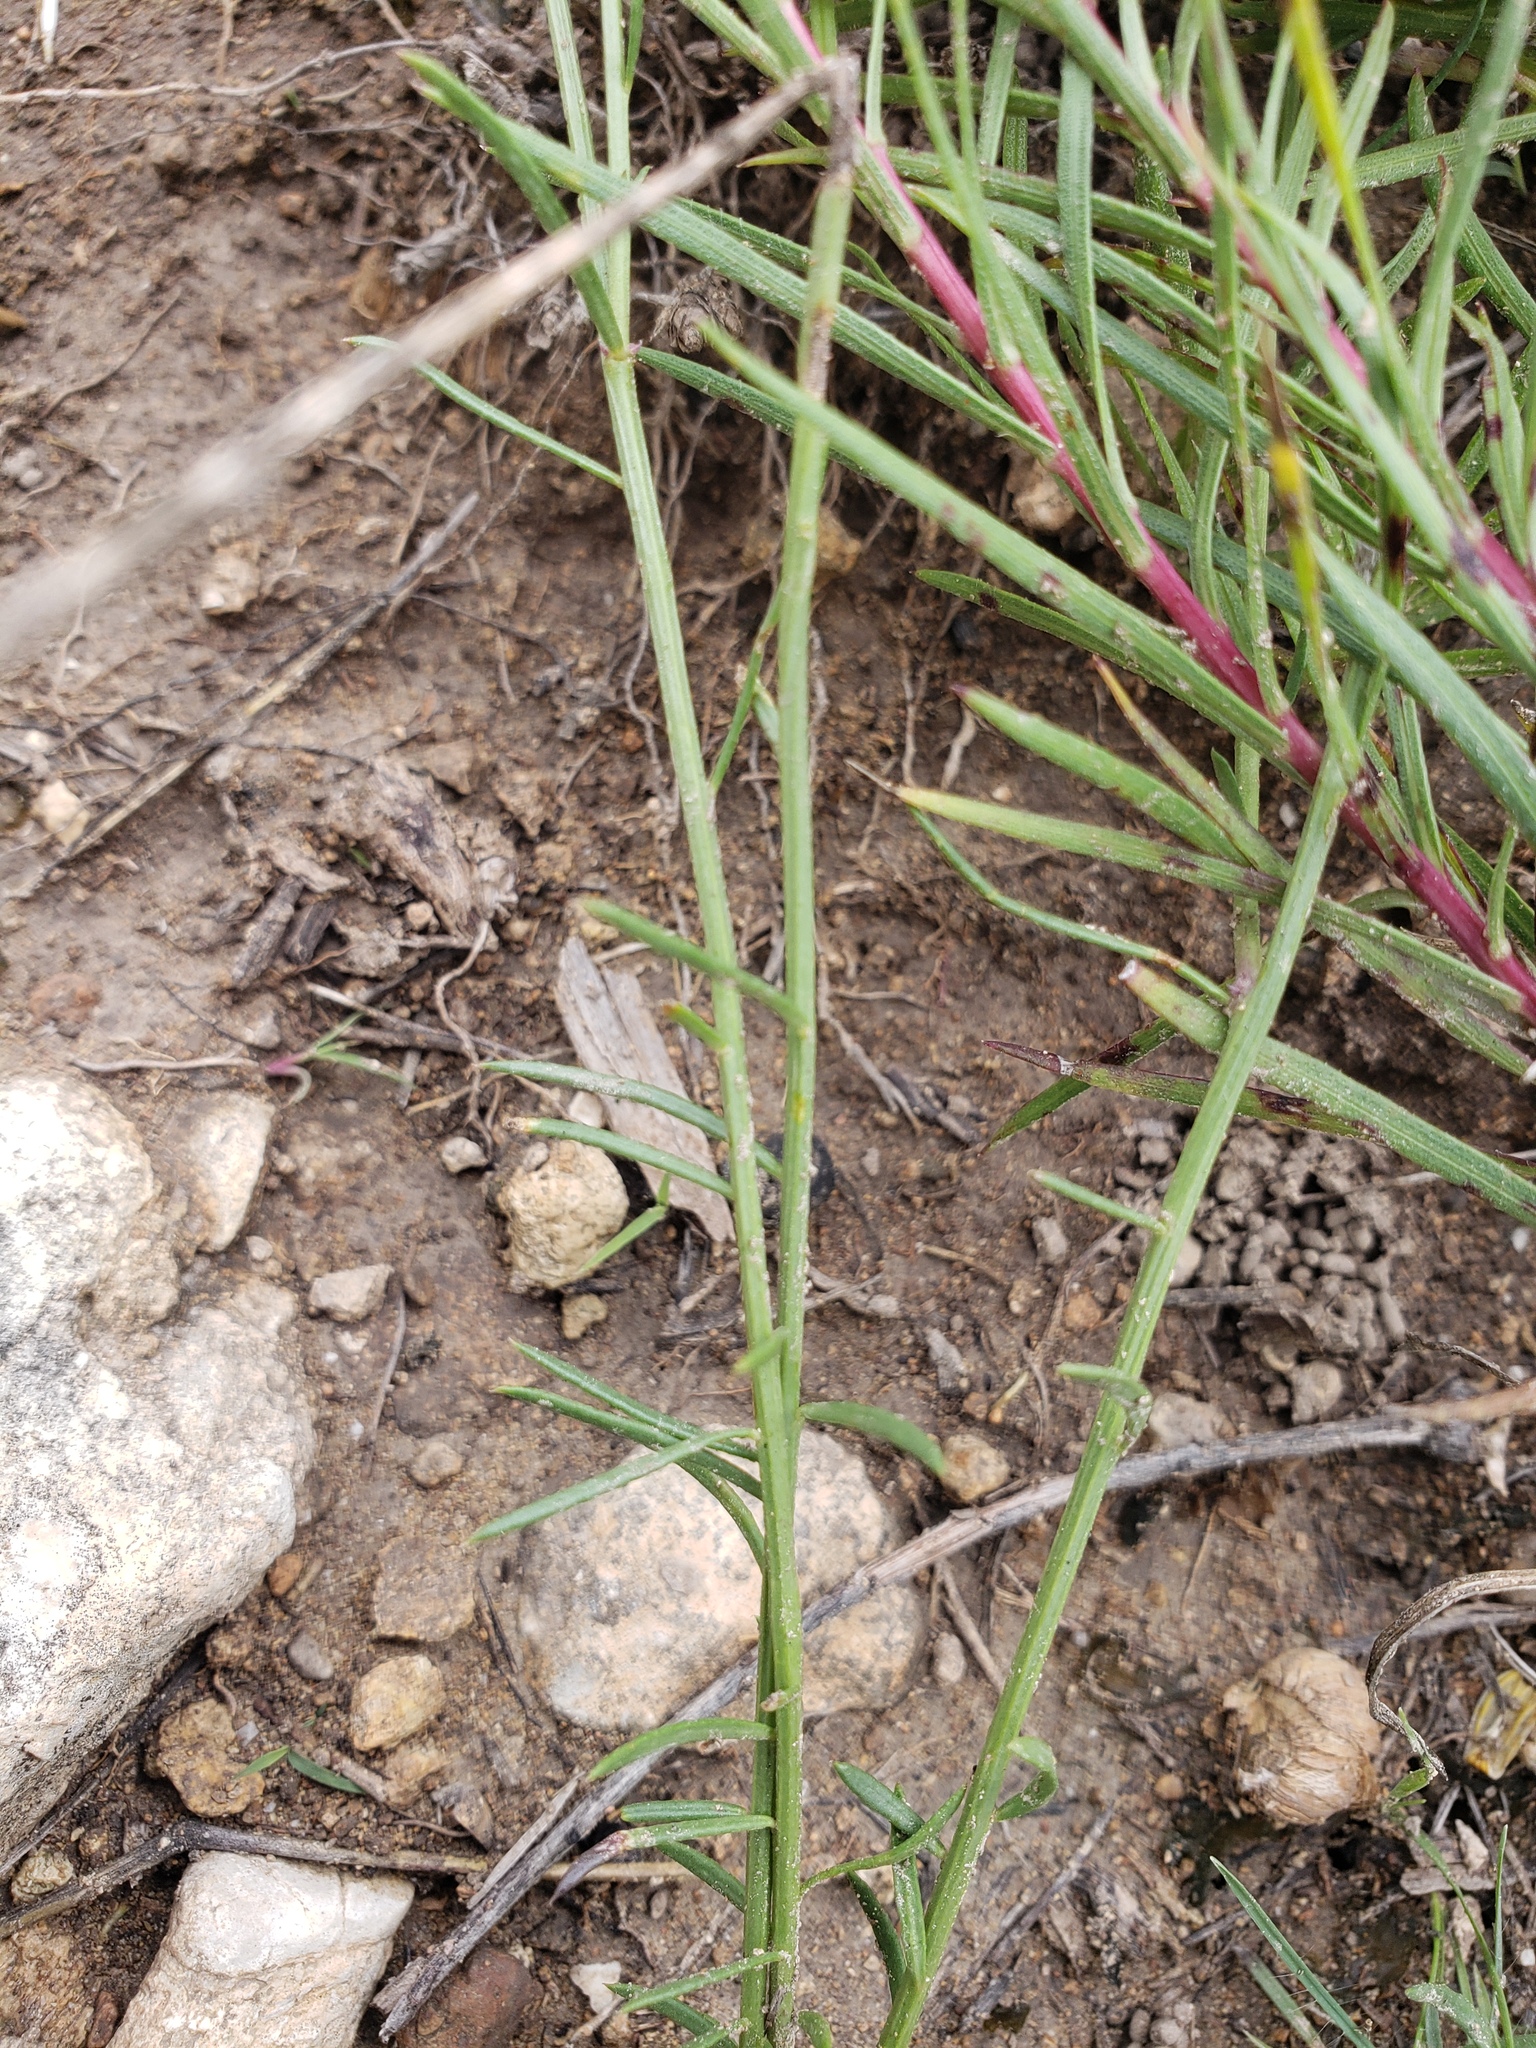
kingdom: Plantae
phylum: Tracheophyta
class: Magnoliopsida
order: Fabales
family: Polygalaceae
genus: Polygala
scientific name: Polygala alba
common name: White milkwort
